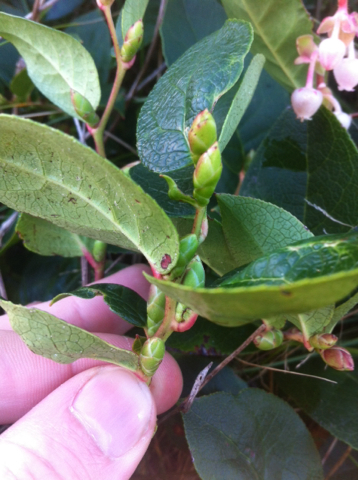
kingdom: Plantae
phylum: Tracheophyta
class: Magnoliopsida
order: Ericales
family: Ericaceae
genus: Gaultheria
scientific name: Gaultheria shallon
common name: Shallon
